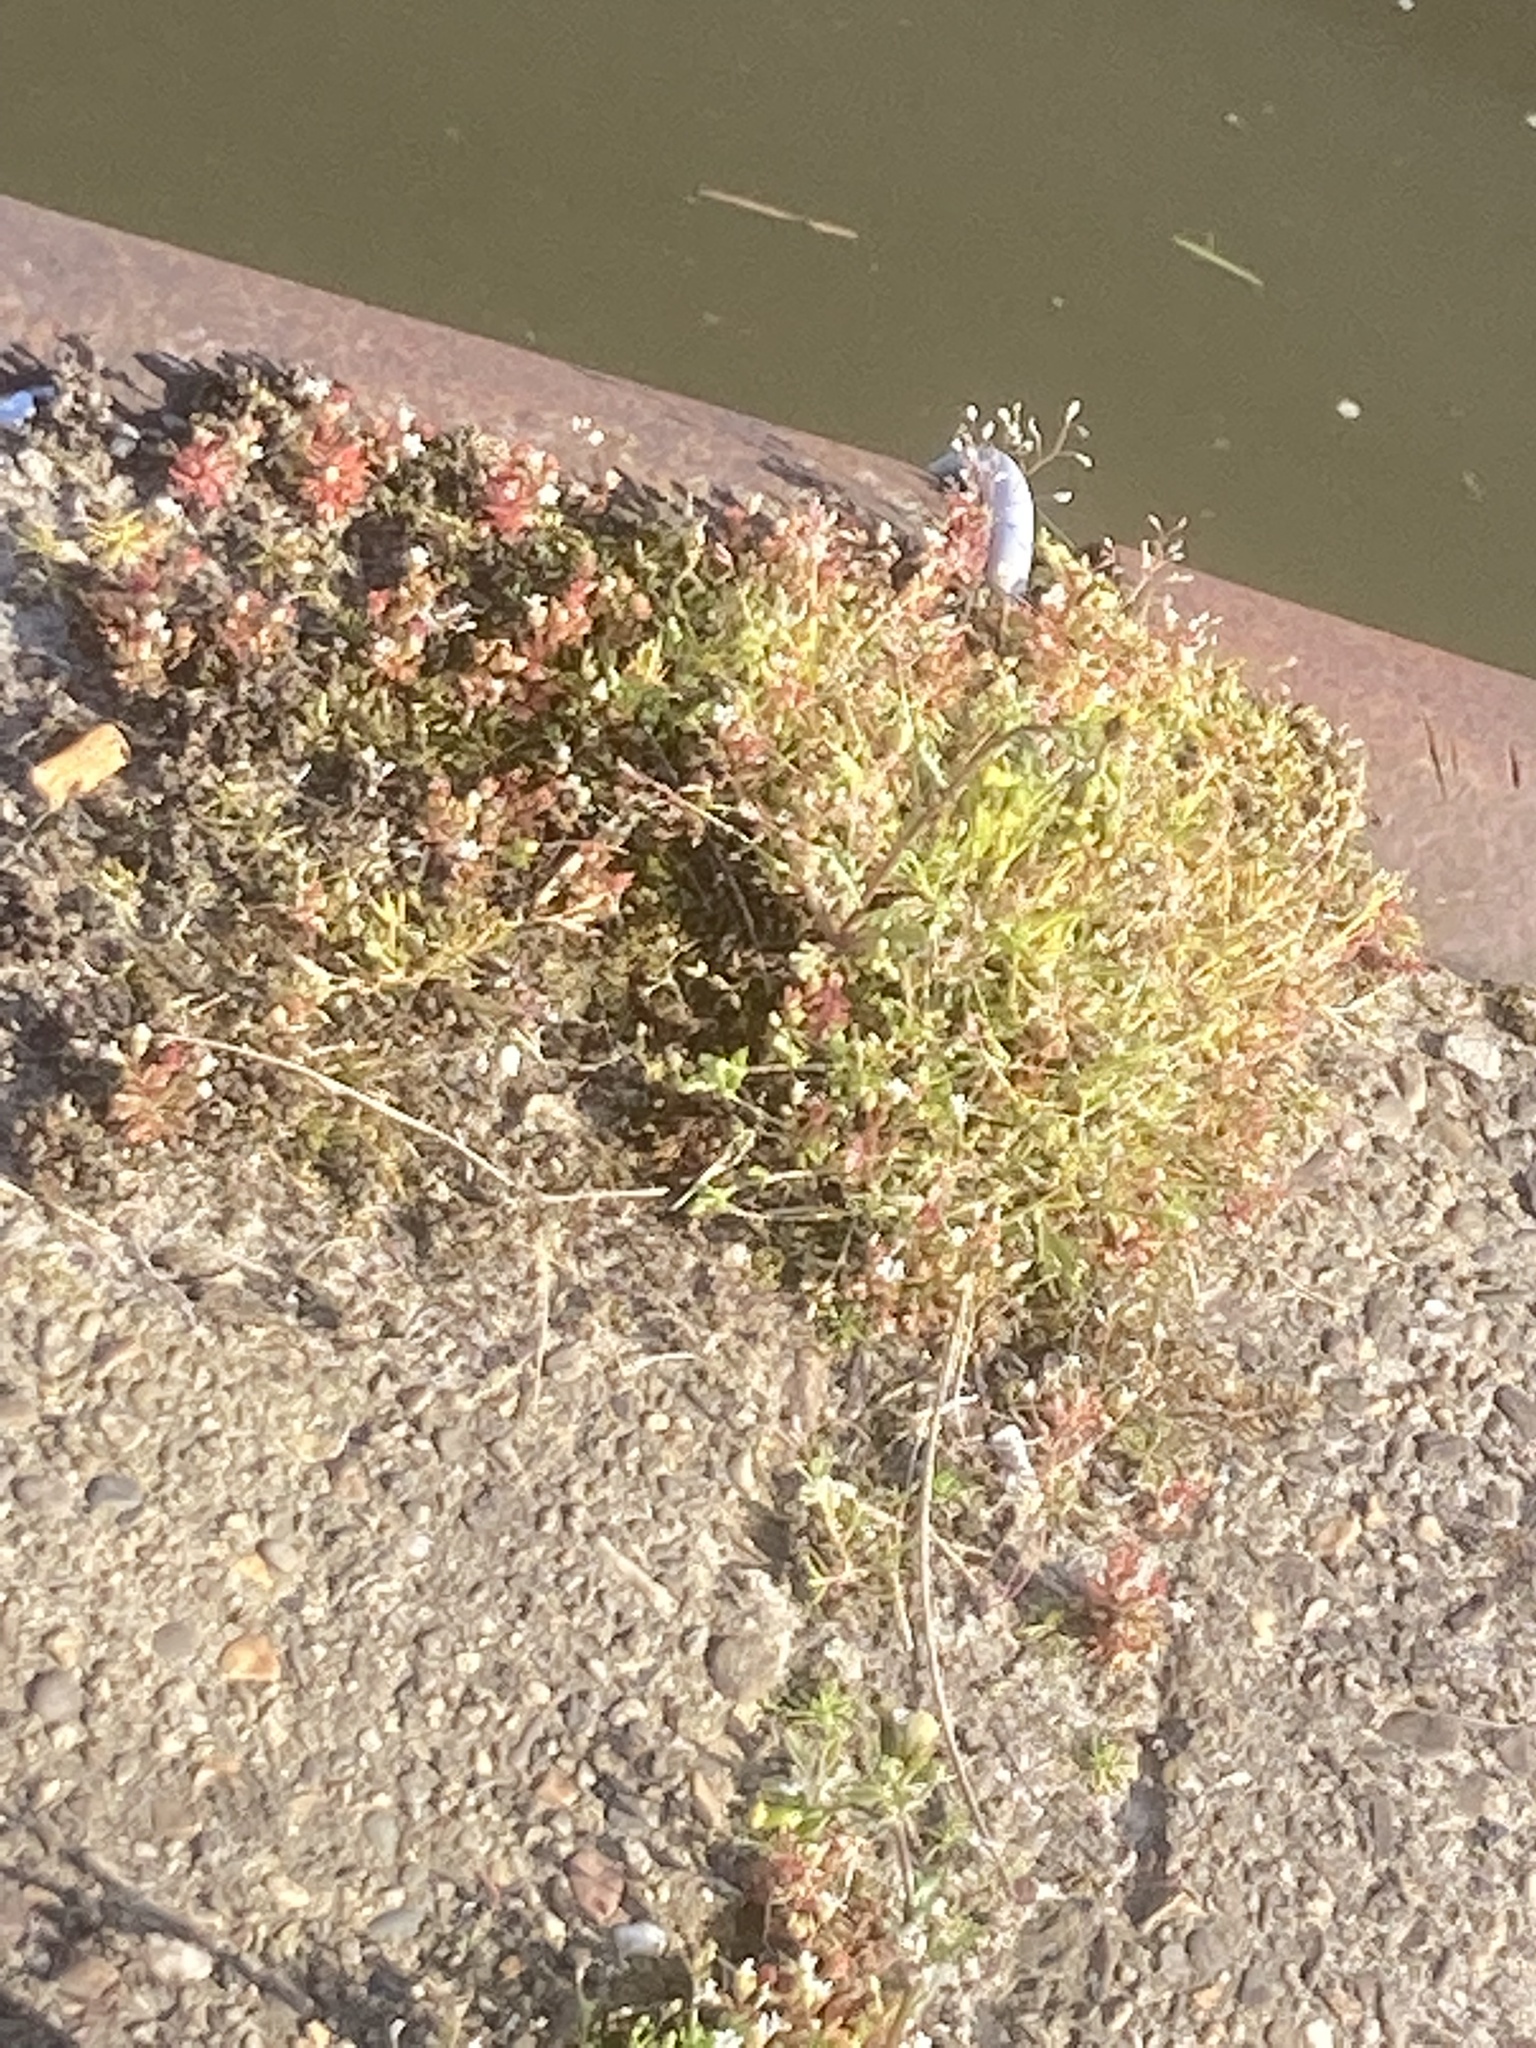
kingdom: Plantae
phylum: Tracheophyta
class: Magnoliopsida
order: Saxifragales
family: Saxifragaceae
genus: Saxifraga
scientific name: Saxifraga tridactylites
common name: Rue-leaved saxifrage
